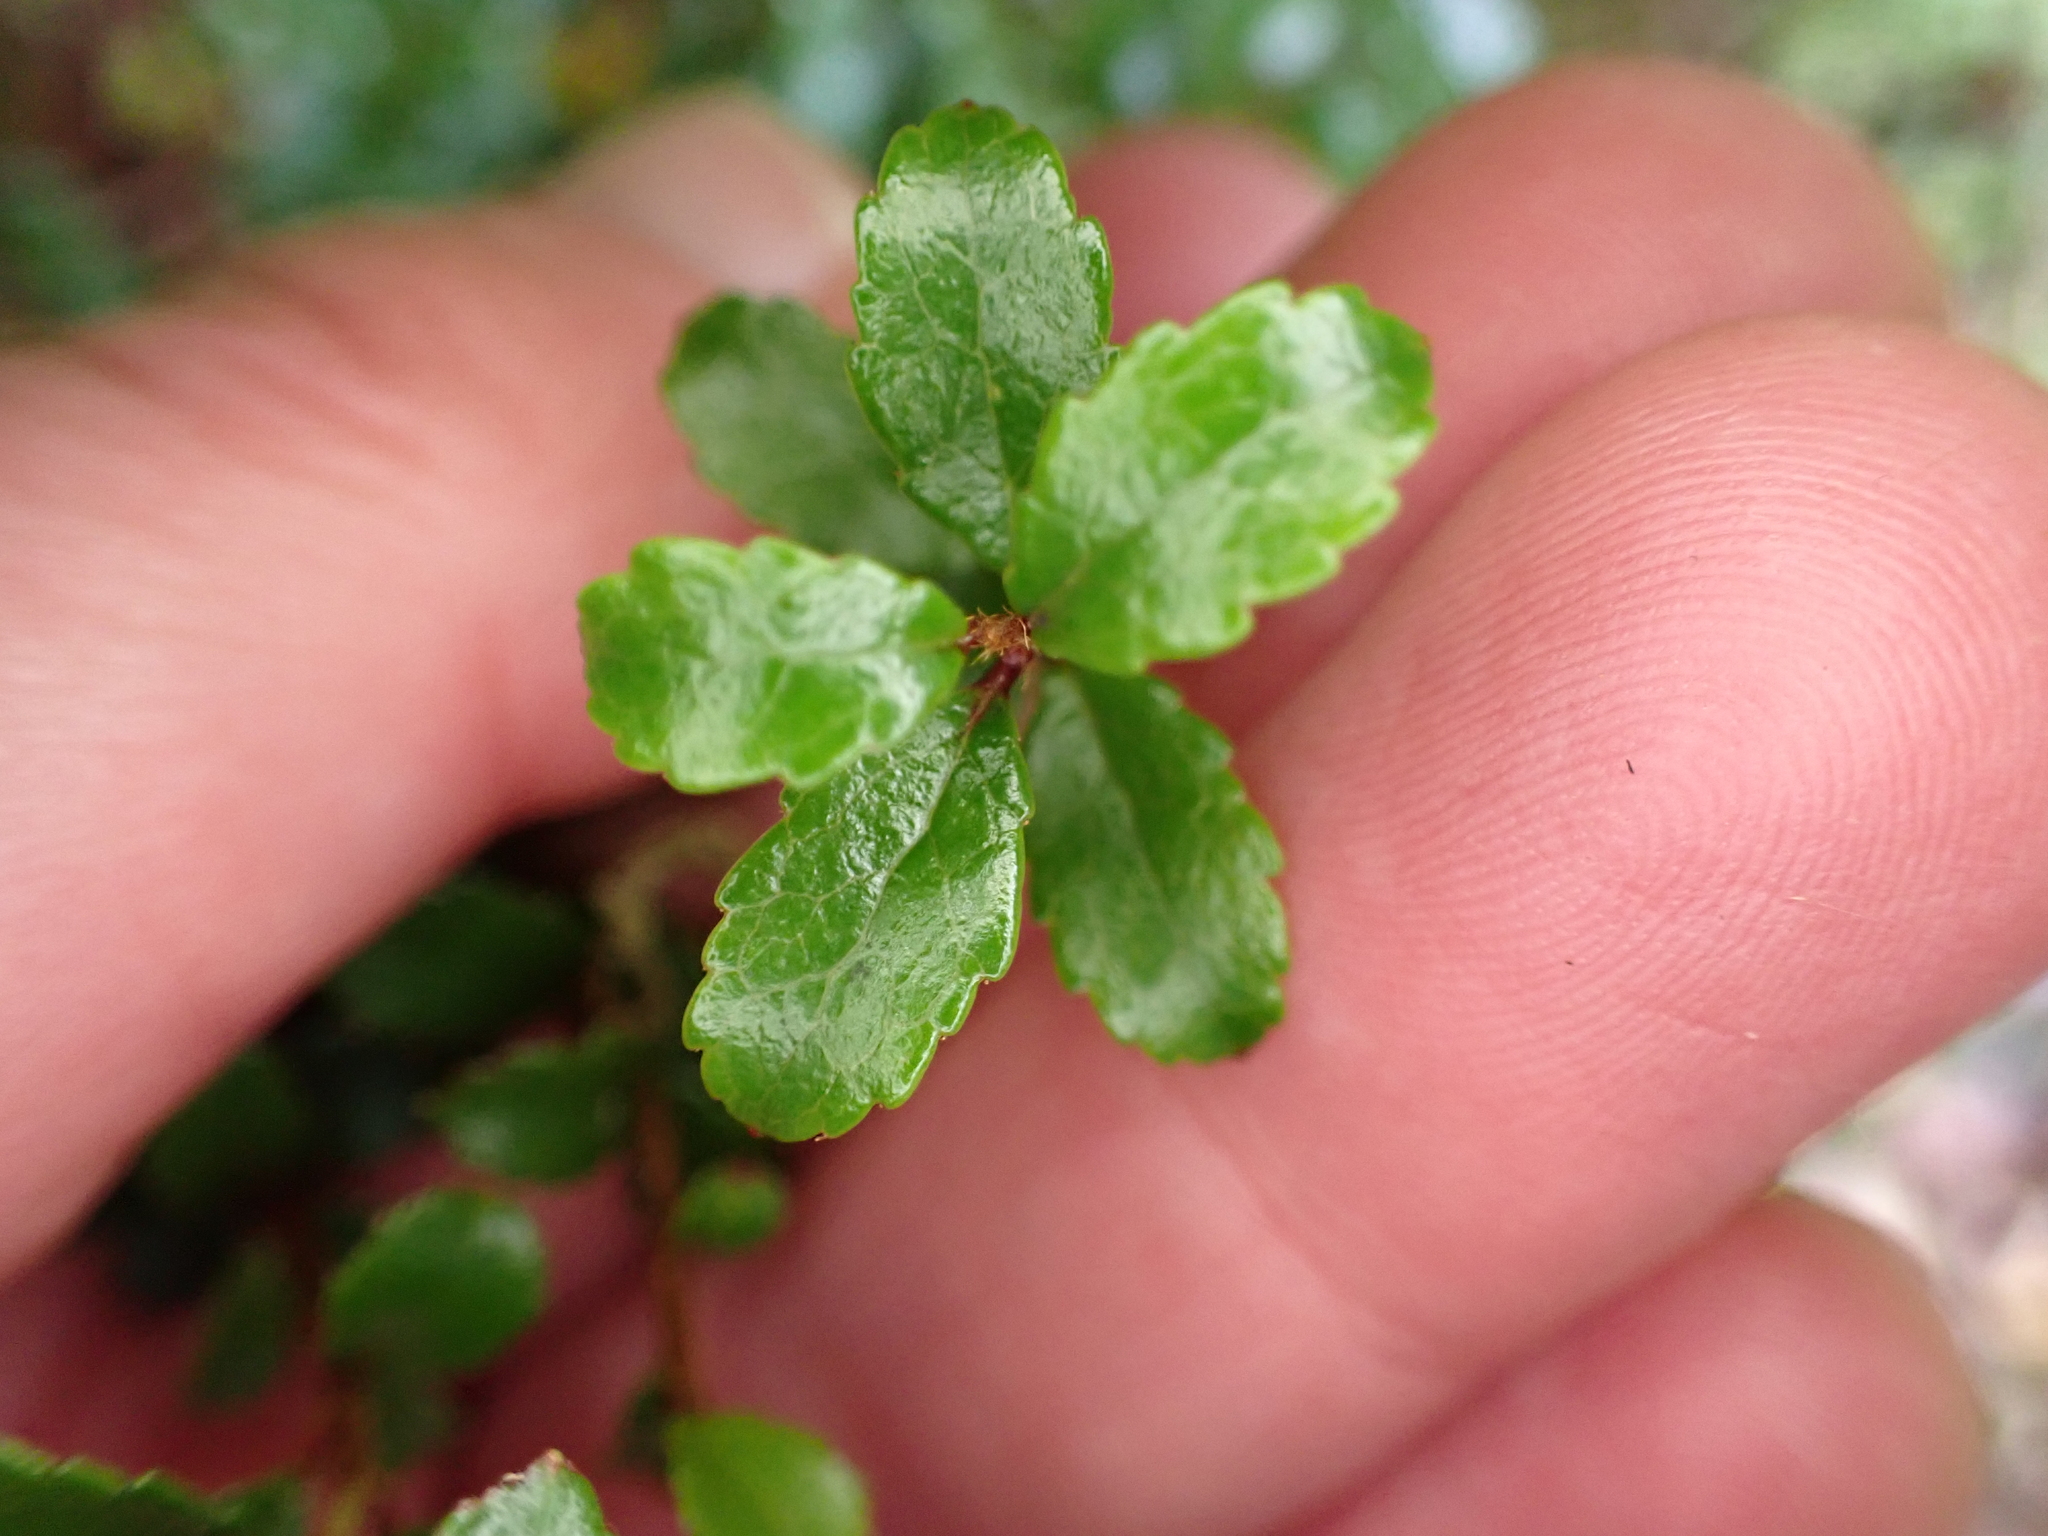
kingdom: Plantae
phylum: Tracheophyta
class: Magnoliopsida
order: Ericales
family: Ericaceae
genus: Gaultheria
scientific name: Gaultheria antipoda
